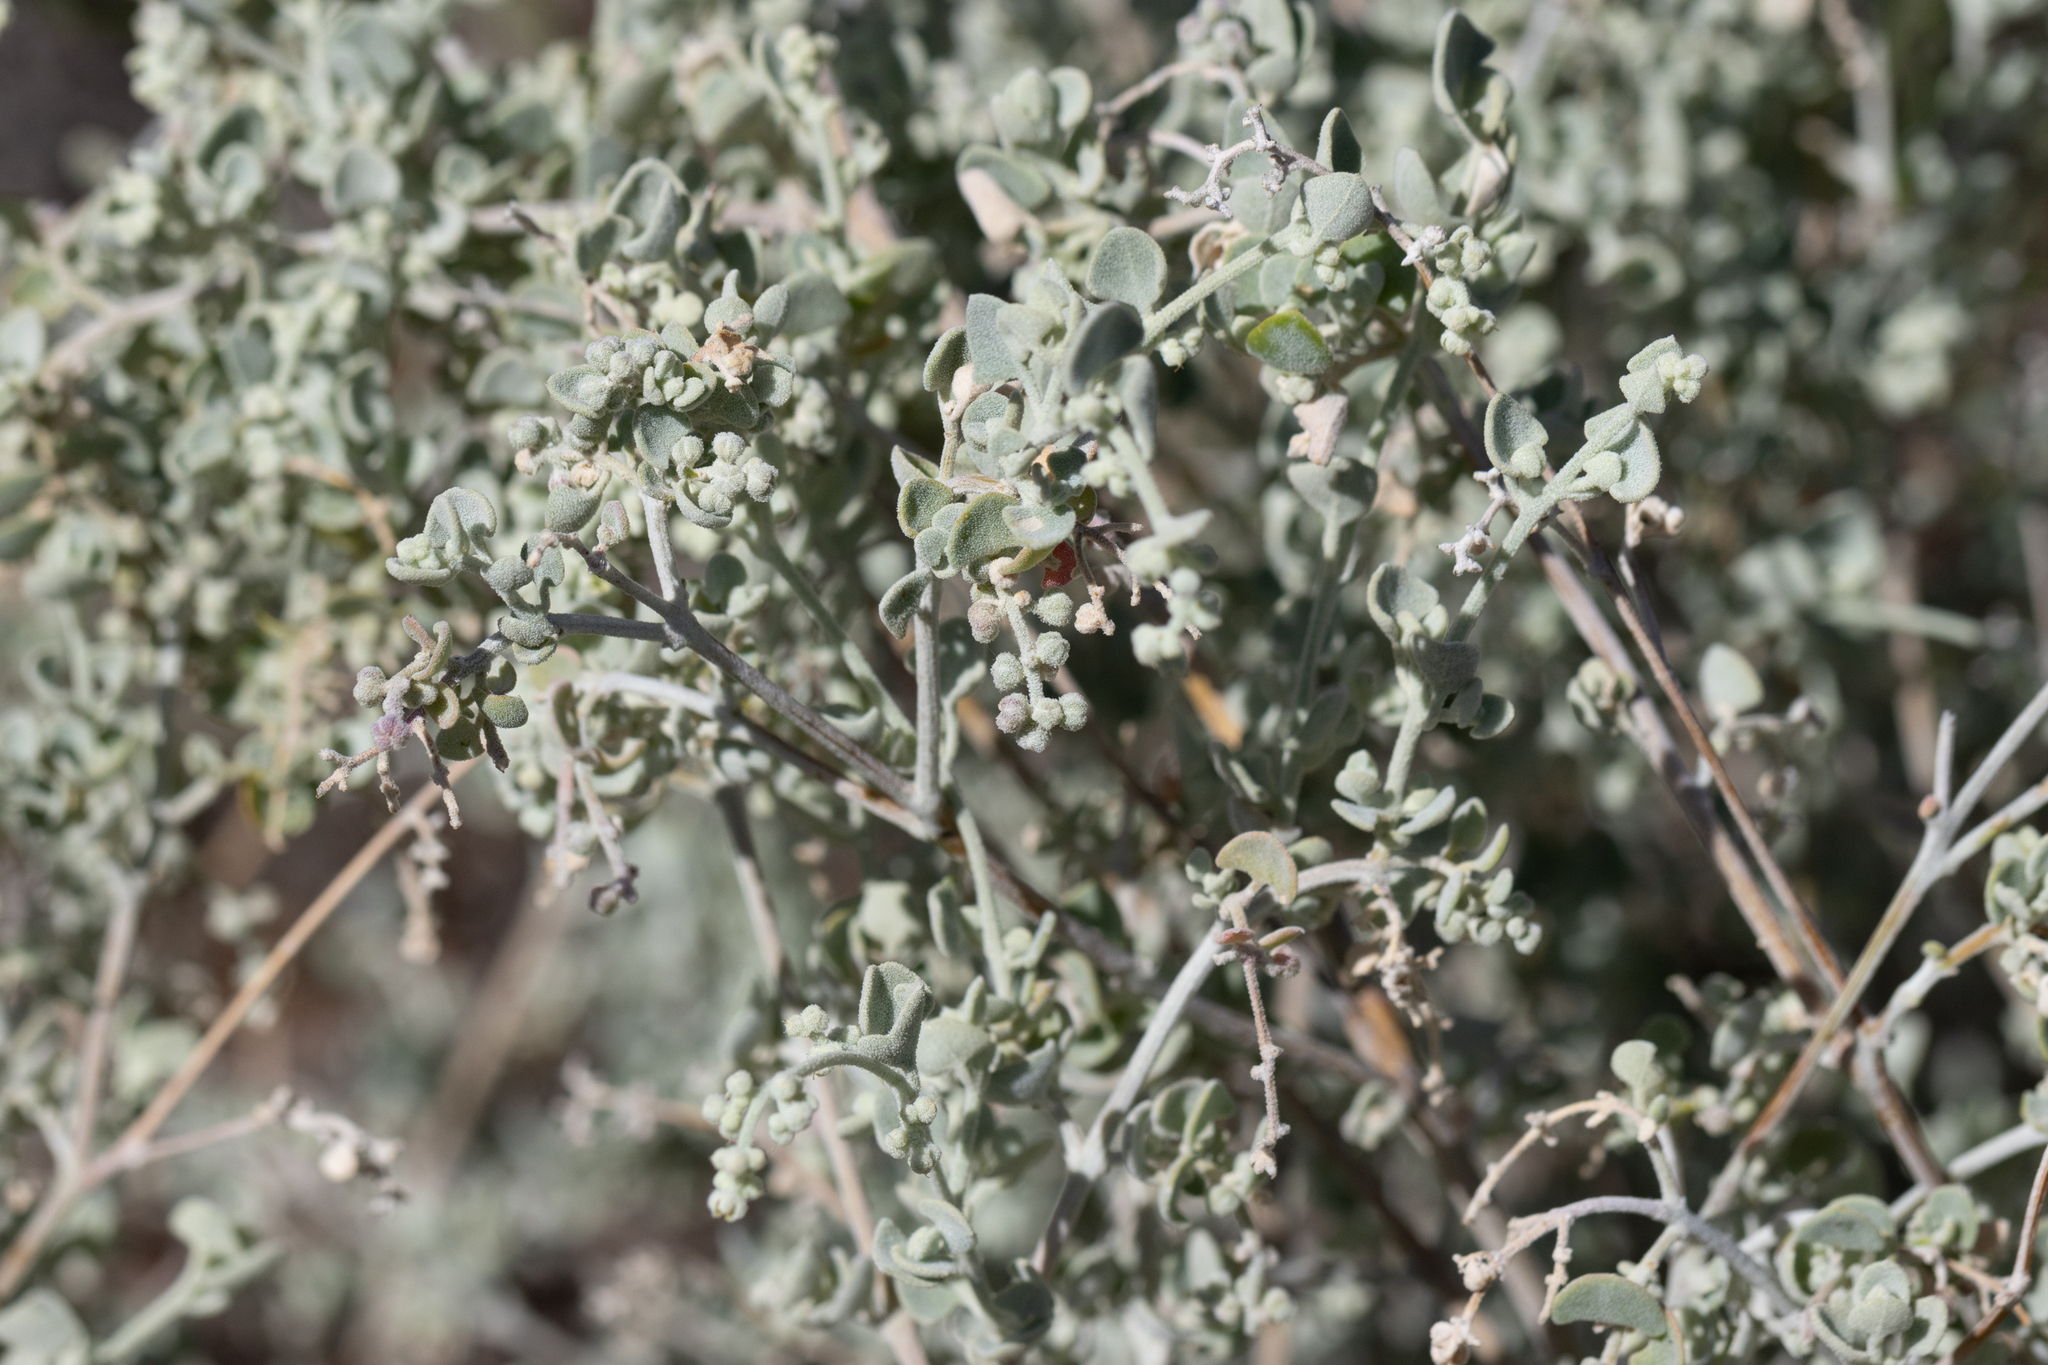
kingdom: Plantae
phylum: Tracheophyta
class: Magnoliopsida
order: Caryophyllales
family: Amaranthaceae
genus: Chenopodium
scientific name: Chenopodium curvispicatum
